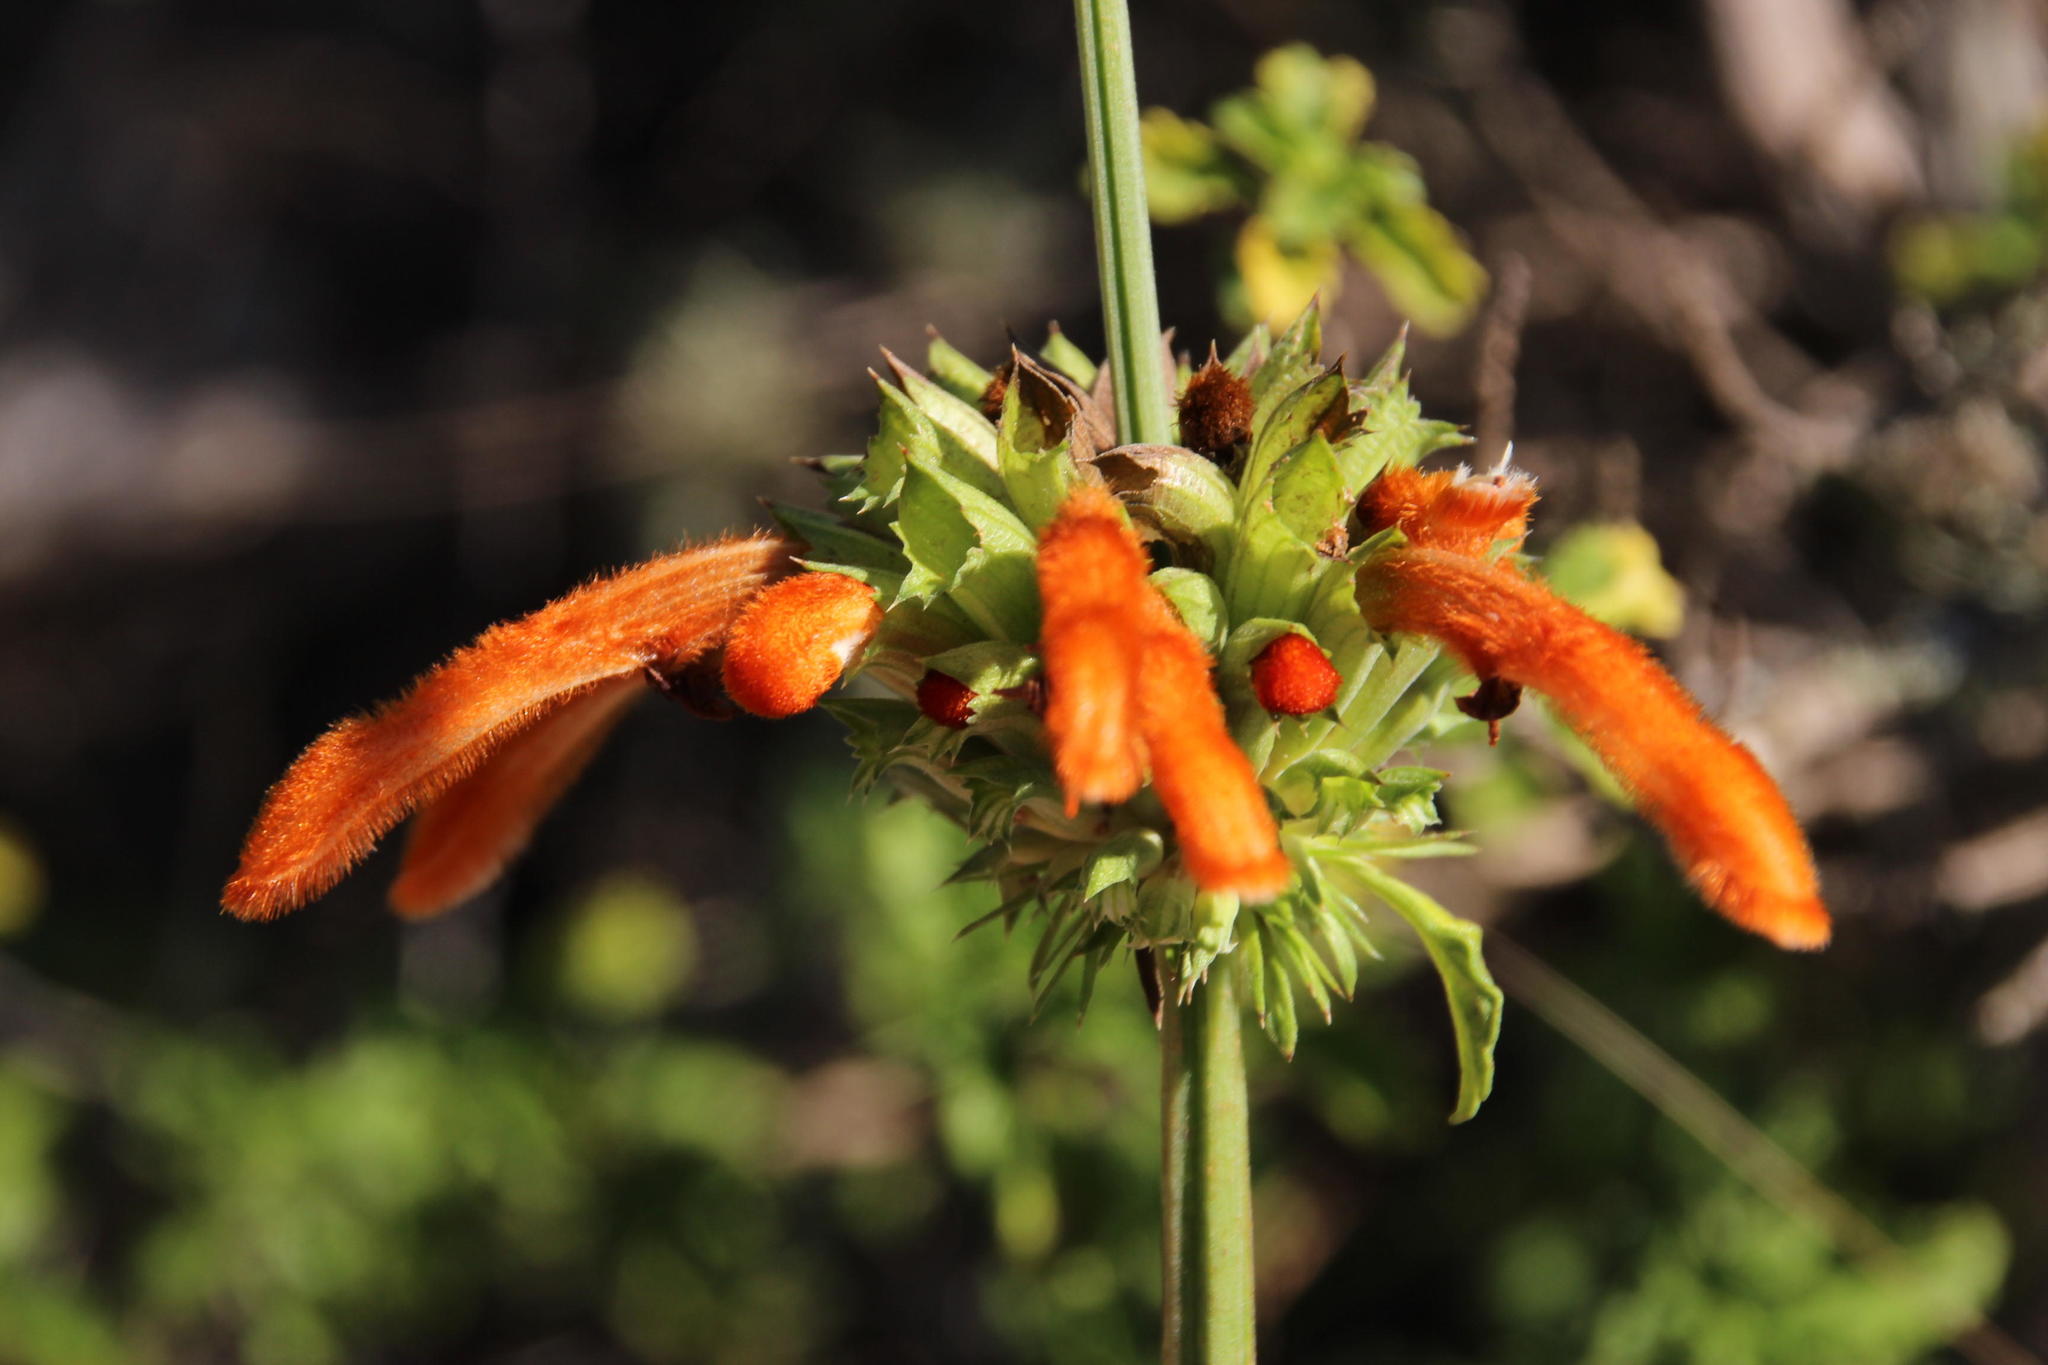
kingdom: Plantae
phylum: Tracheophyta
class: Magnoliopsida
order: Lamiales
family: Lamiaceae
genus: Leonotis
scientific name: Leonotis ocymifolia
